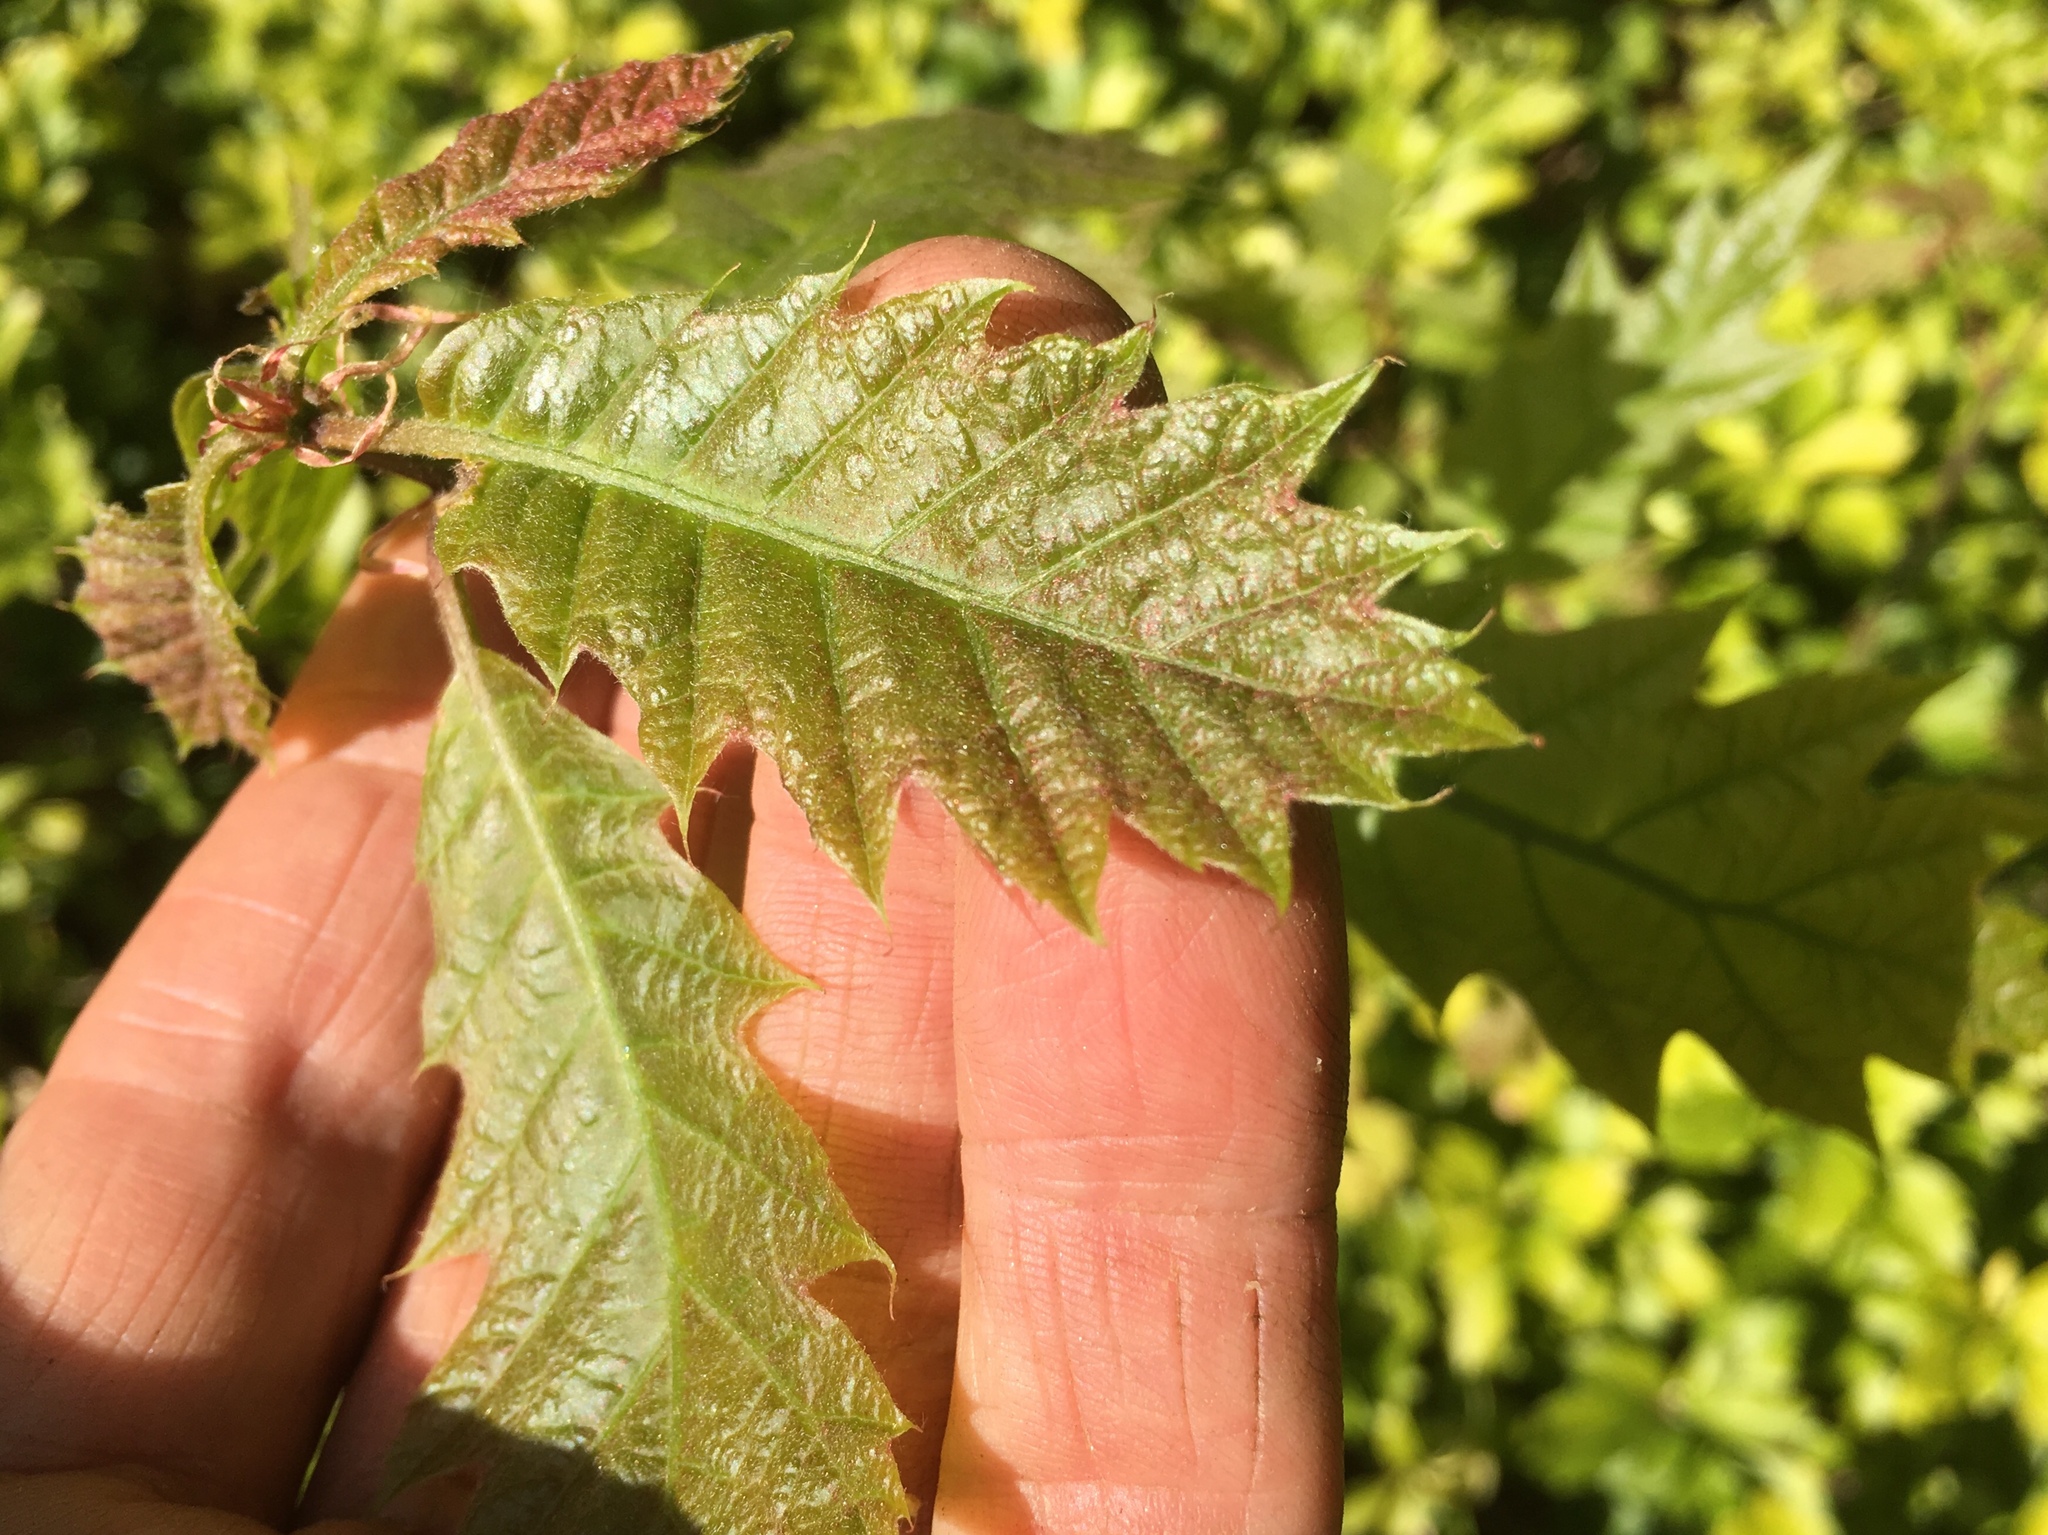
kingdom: Plantae
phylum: Tracheophyta
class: Magnoliopsida
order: Fagales
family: Fagaceae
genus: Quercus
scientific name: Quercus rubra
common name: Red oak
